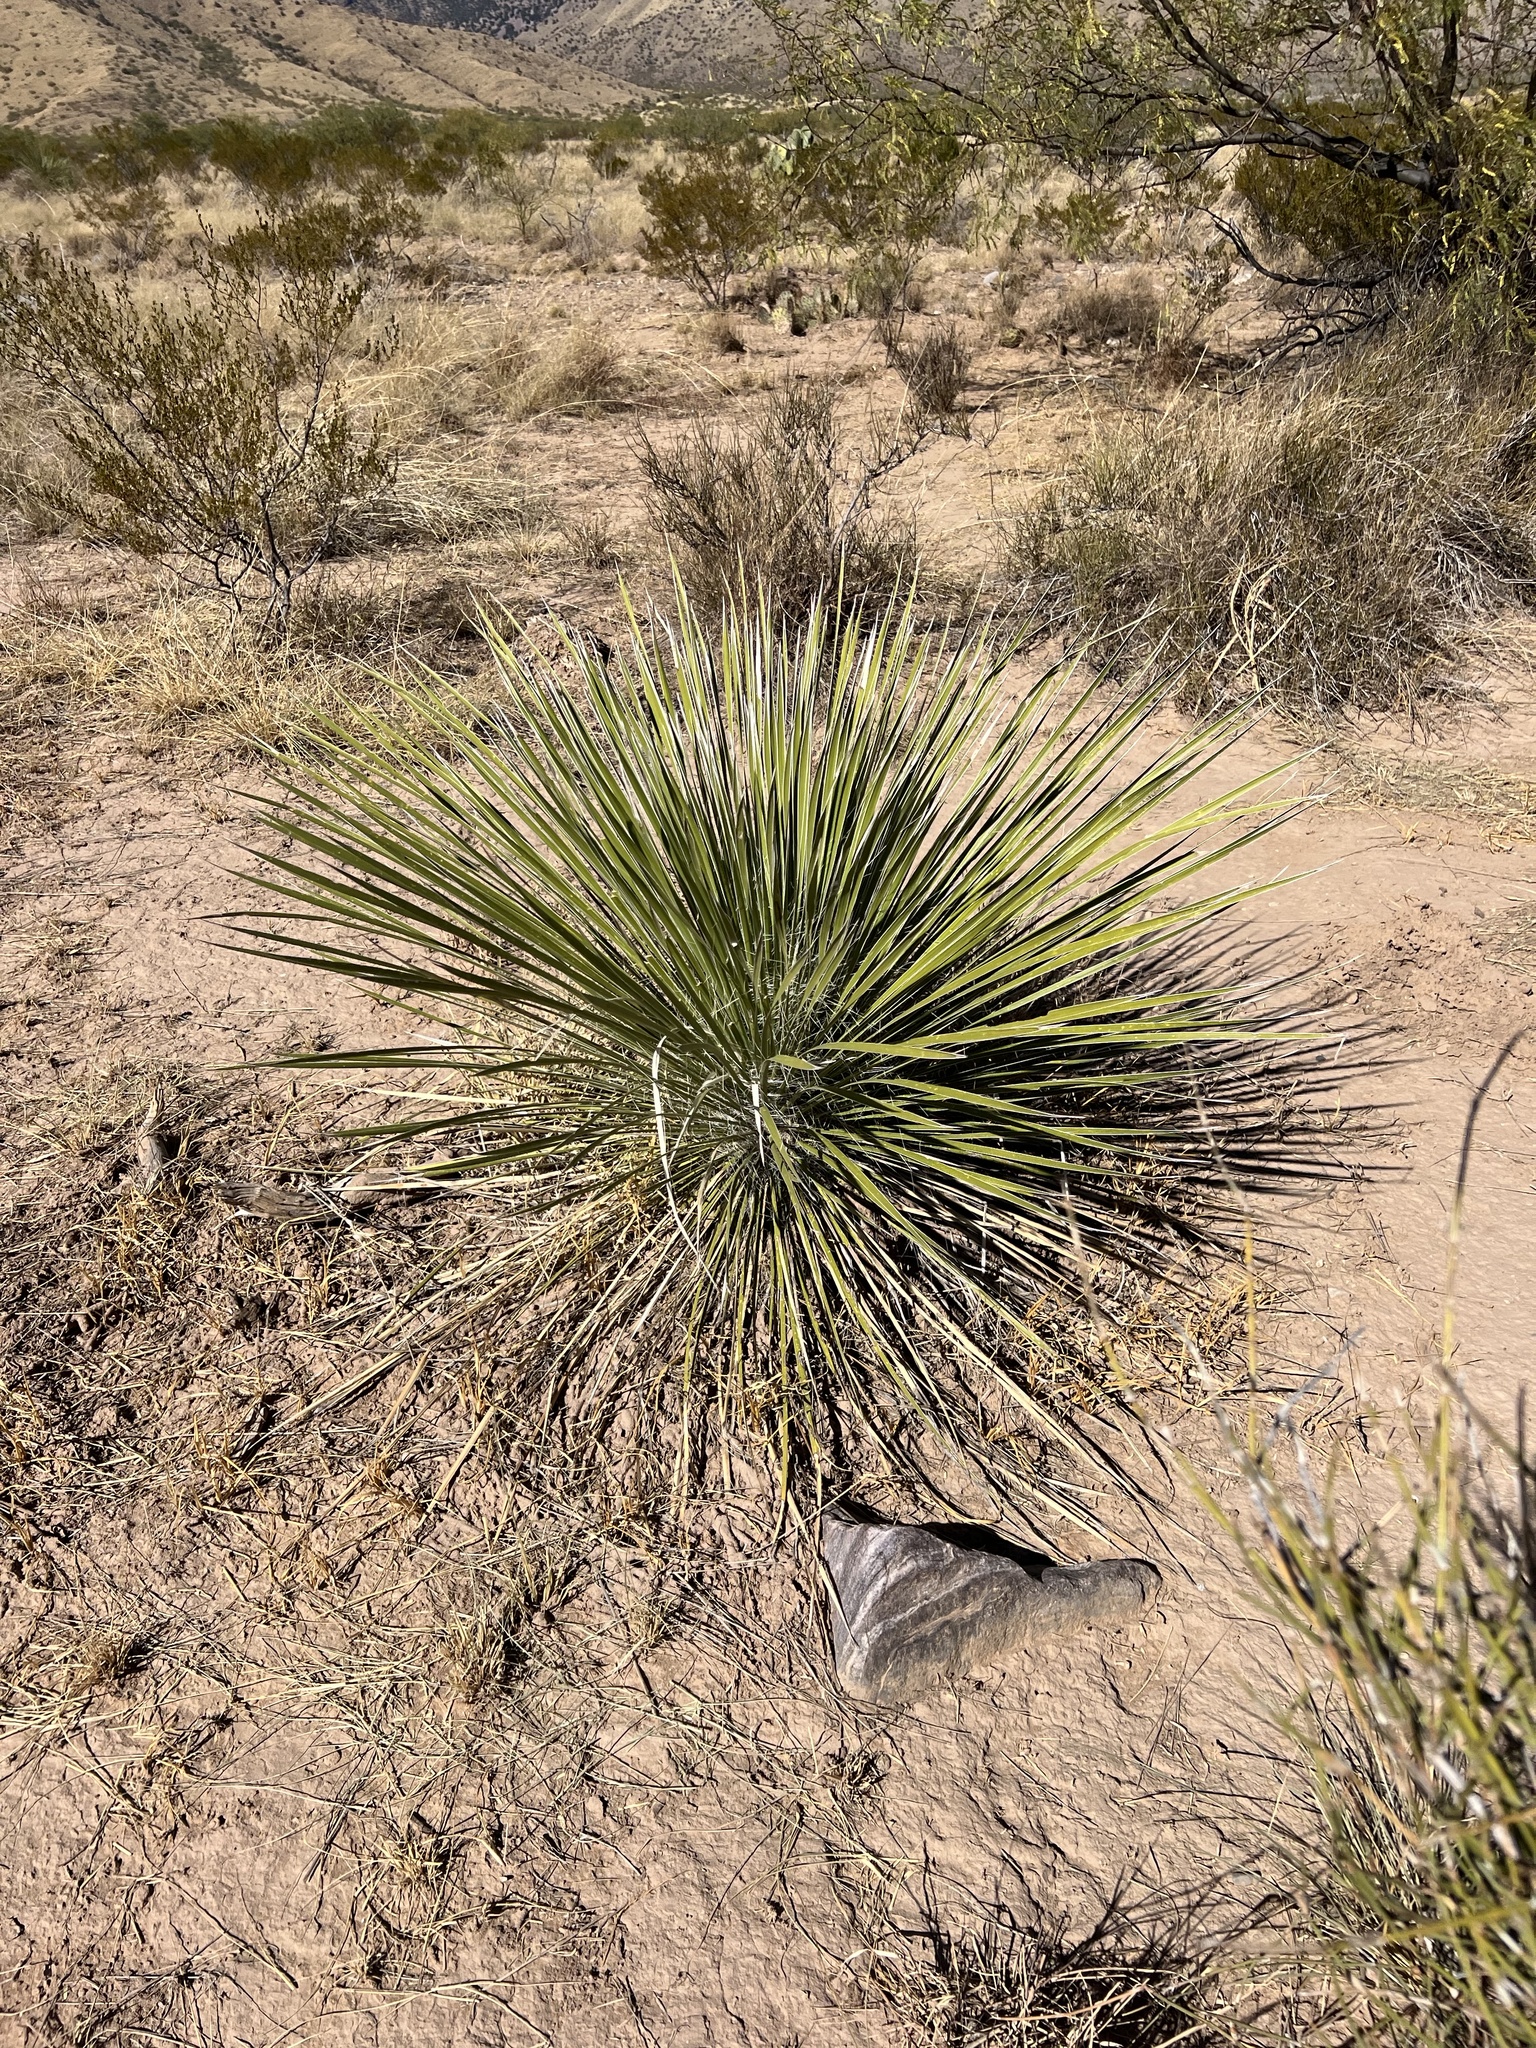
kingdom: Plantae
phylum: Tracheophyta
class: Liliopsida
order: Asparagales
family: Asparagaceae
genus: Yucca
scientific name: Yucca elata
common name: Palmella
